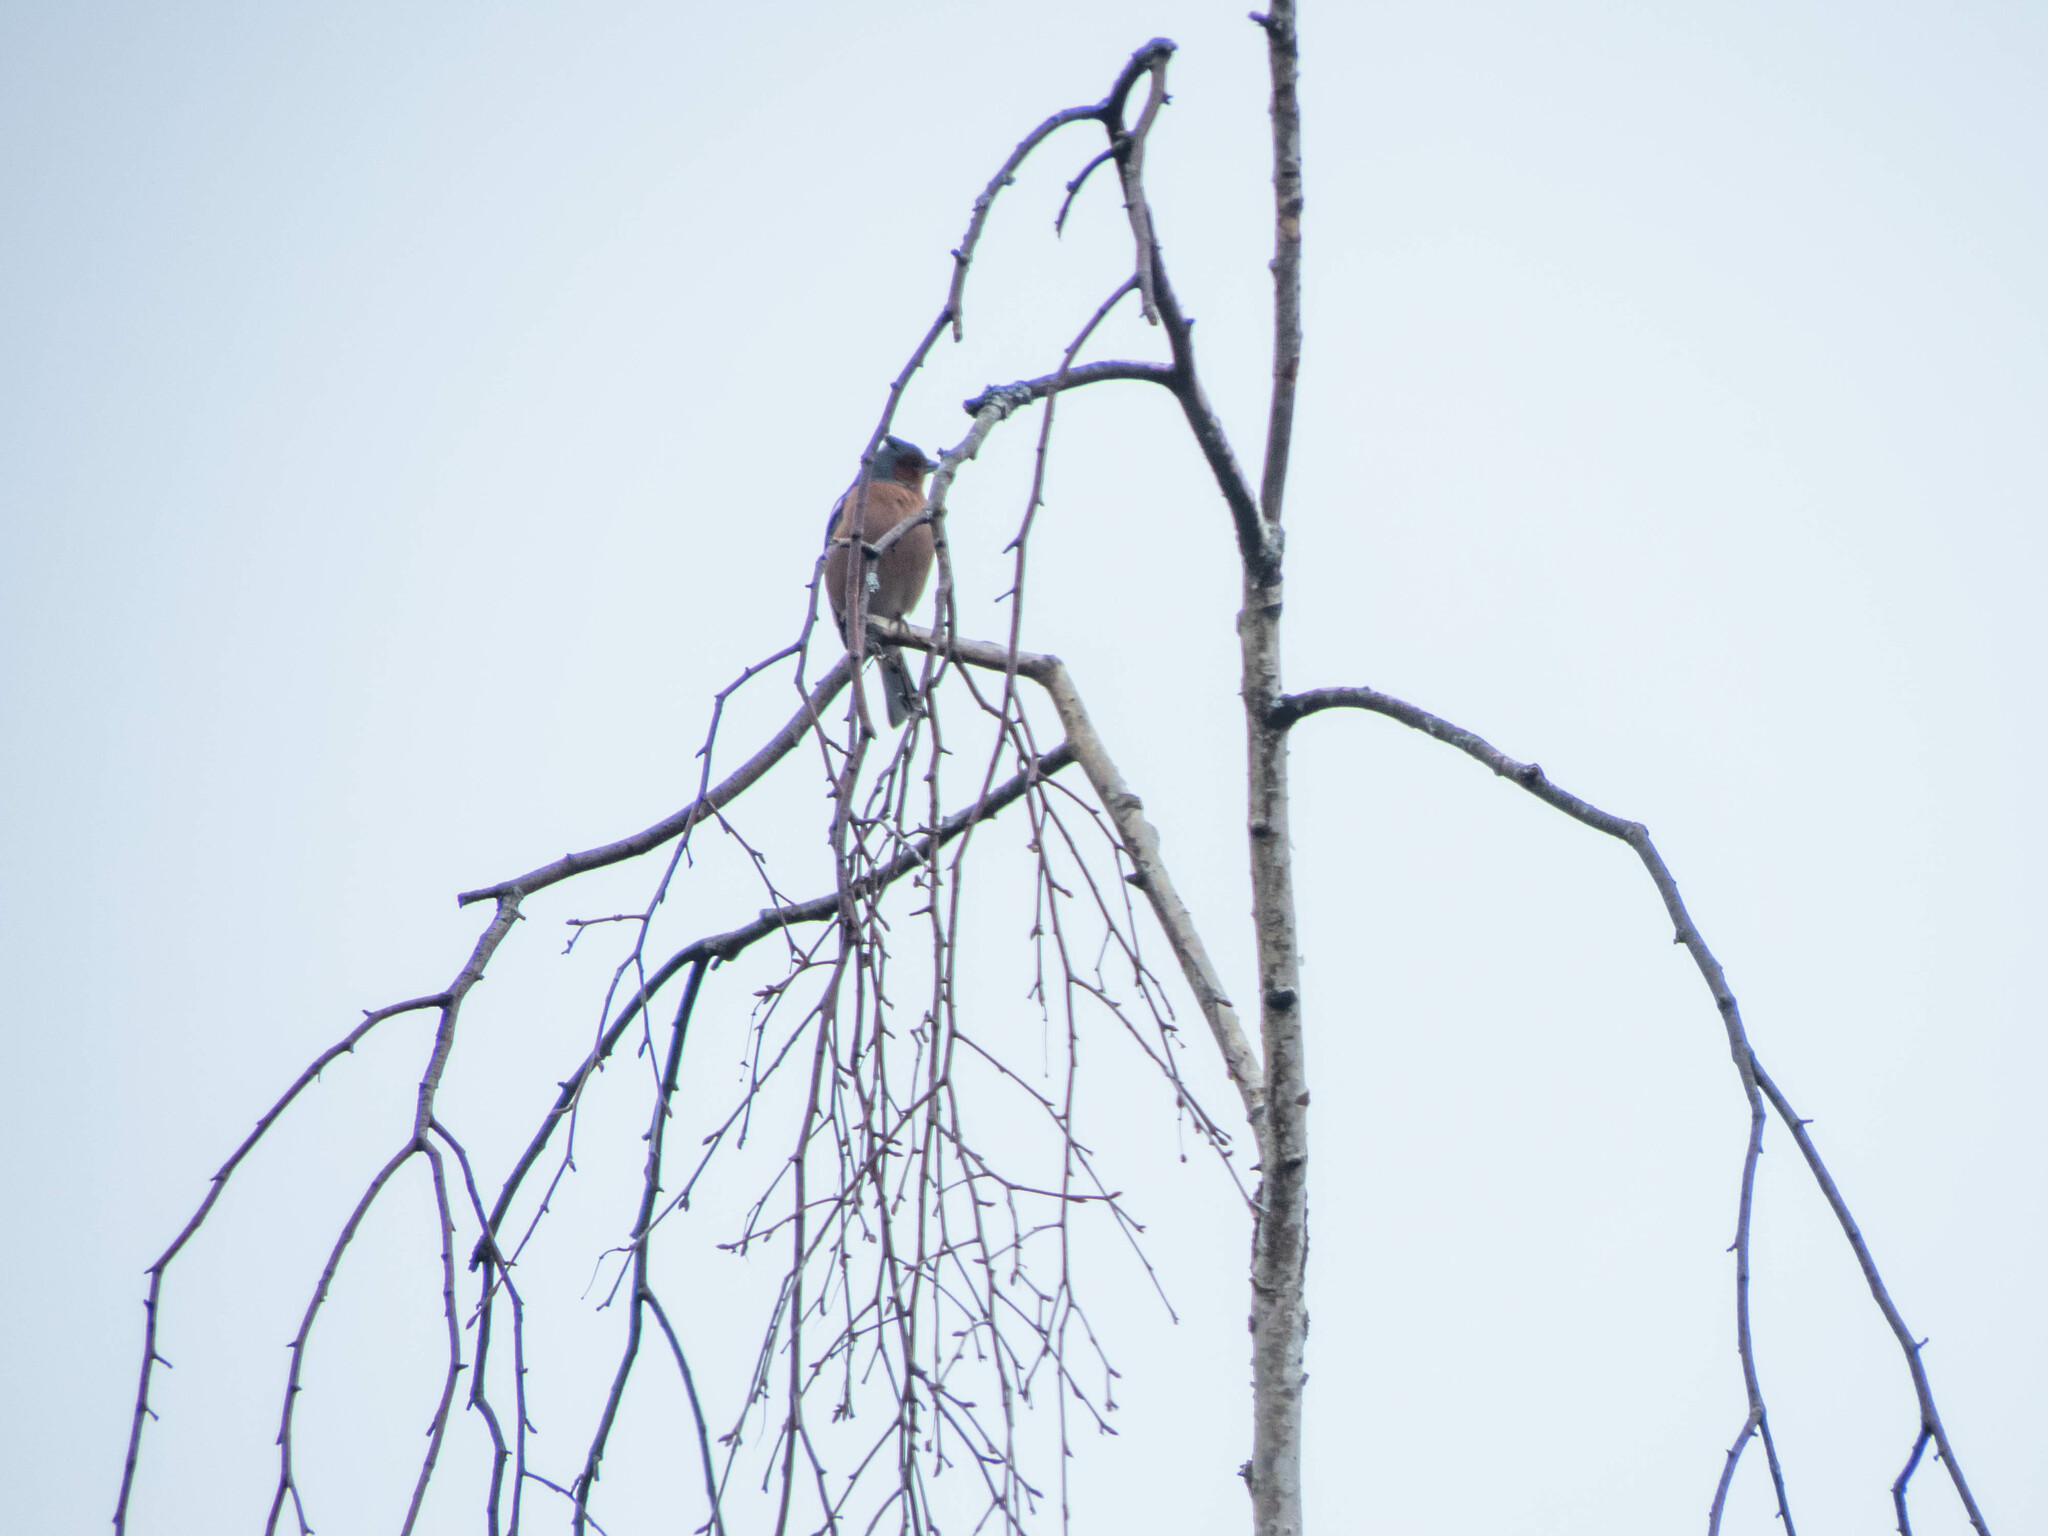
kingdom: Animalia
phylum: Chordata
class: Aves
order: Passeriformes
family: Fringillidae
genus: Fringilla
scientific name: Fringilla coelebs
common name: Common chaffinch
